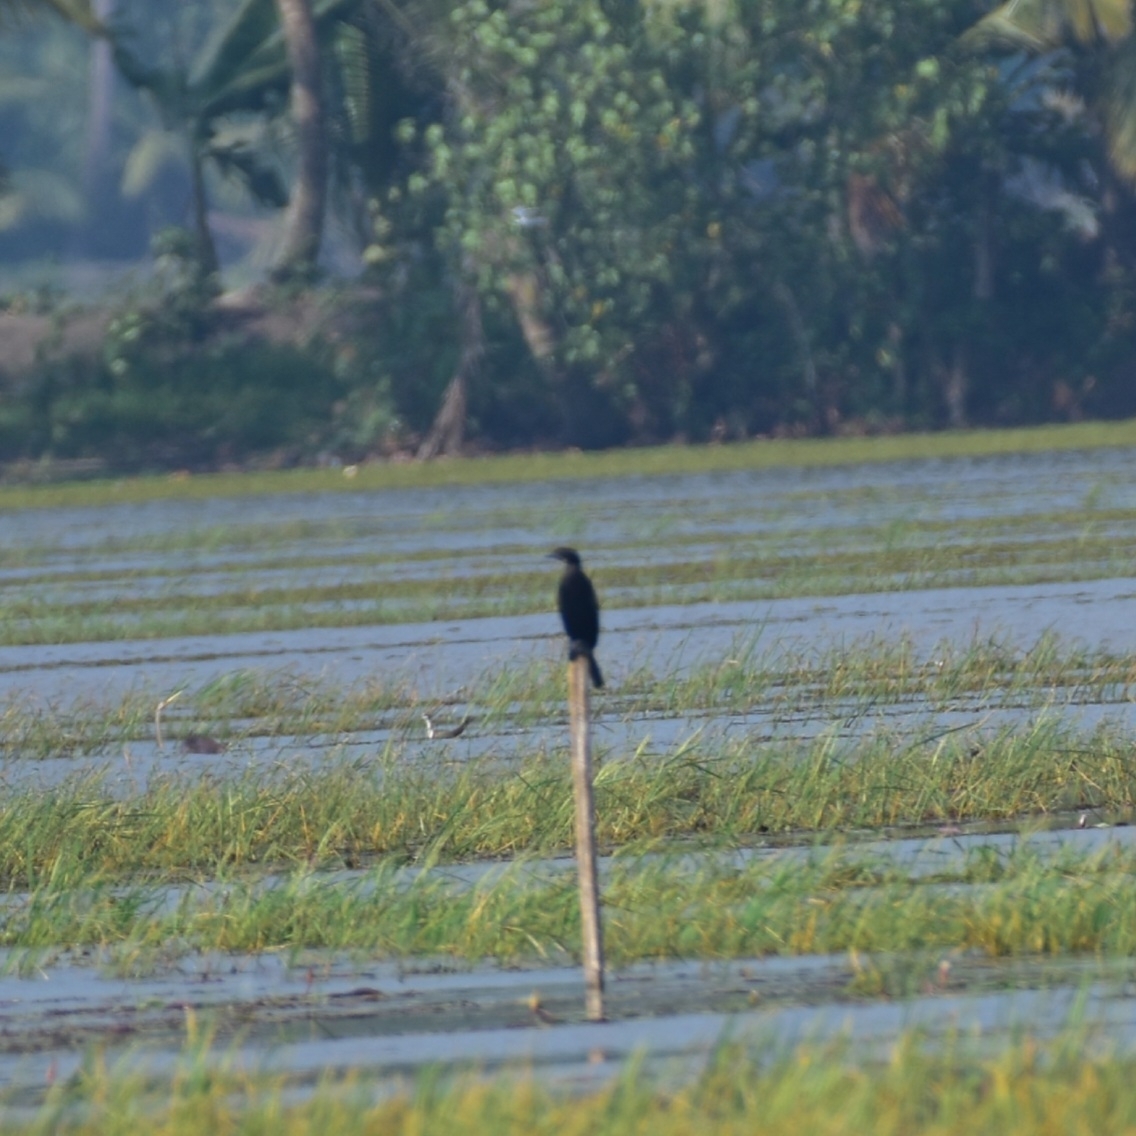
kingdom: Animalia
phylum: Chordata
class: Aves
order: Suliformes
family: Phalacrocoracidae
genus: Microcarbo
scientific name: Microcarbo niger
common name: Little cormorant
